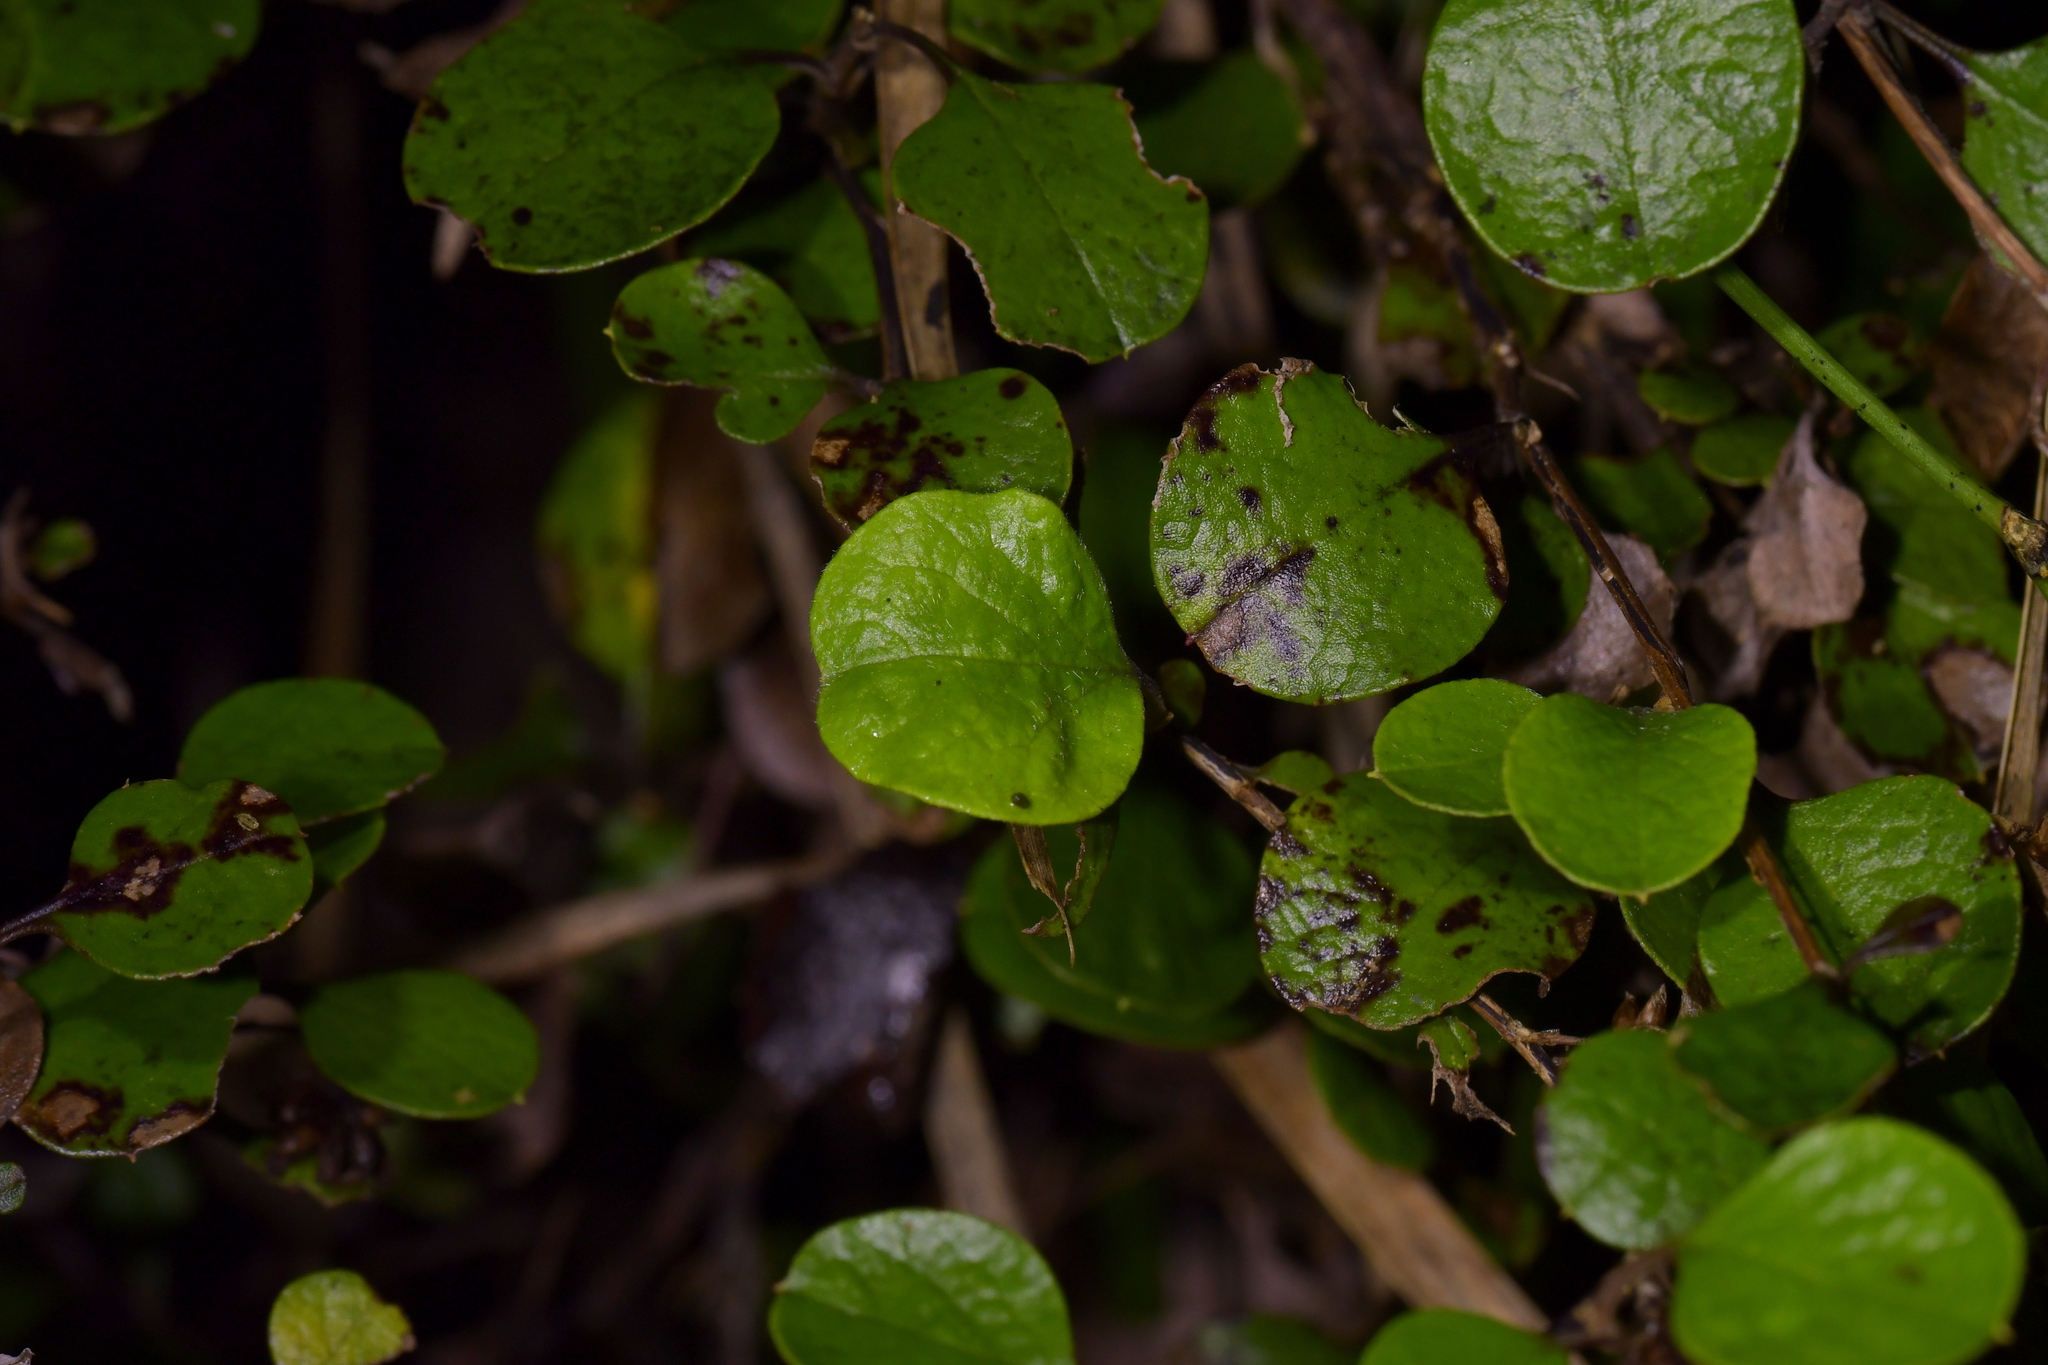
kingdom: Plantae
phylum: Tracheophyta
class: Magnoliopsida
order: Asterales
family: Asteraceae
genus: Ozothamnus
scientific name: Ozothamnus glomeratus
